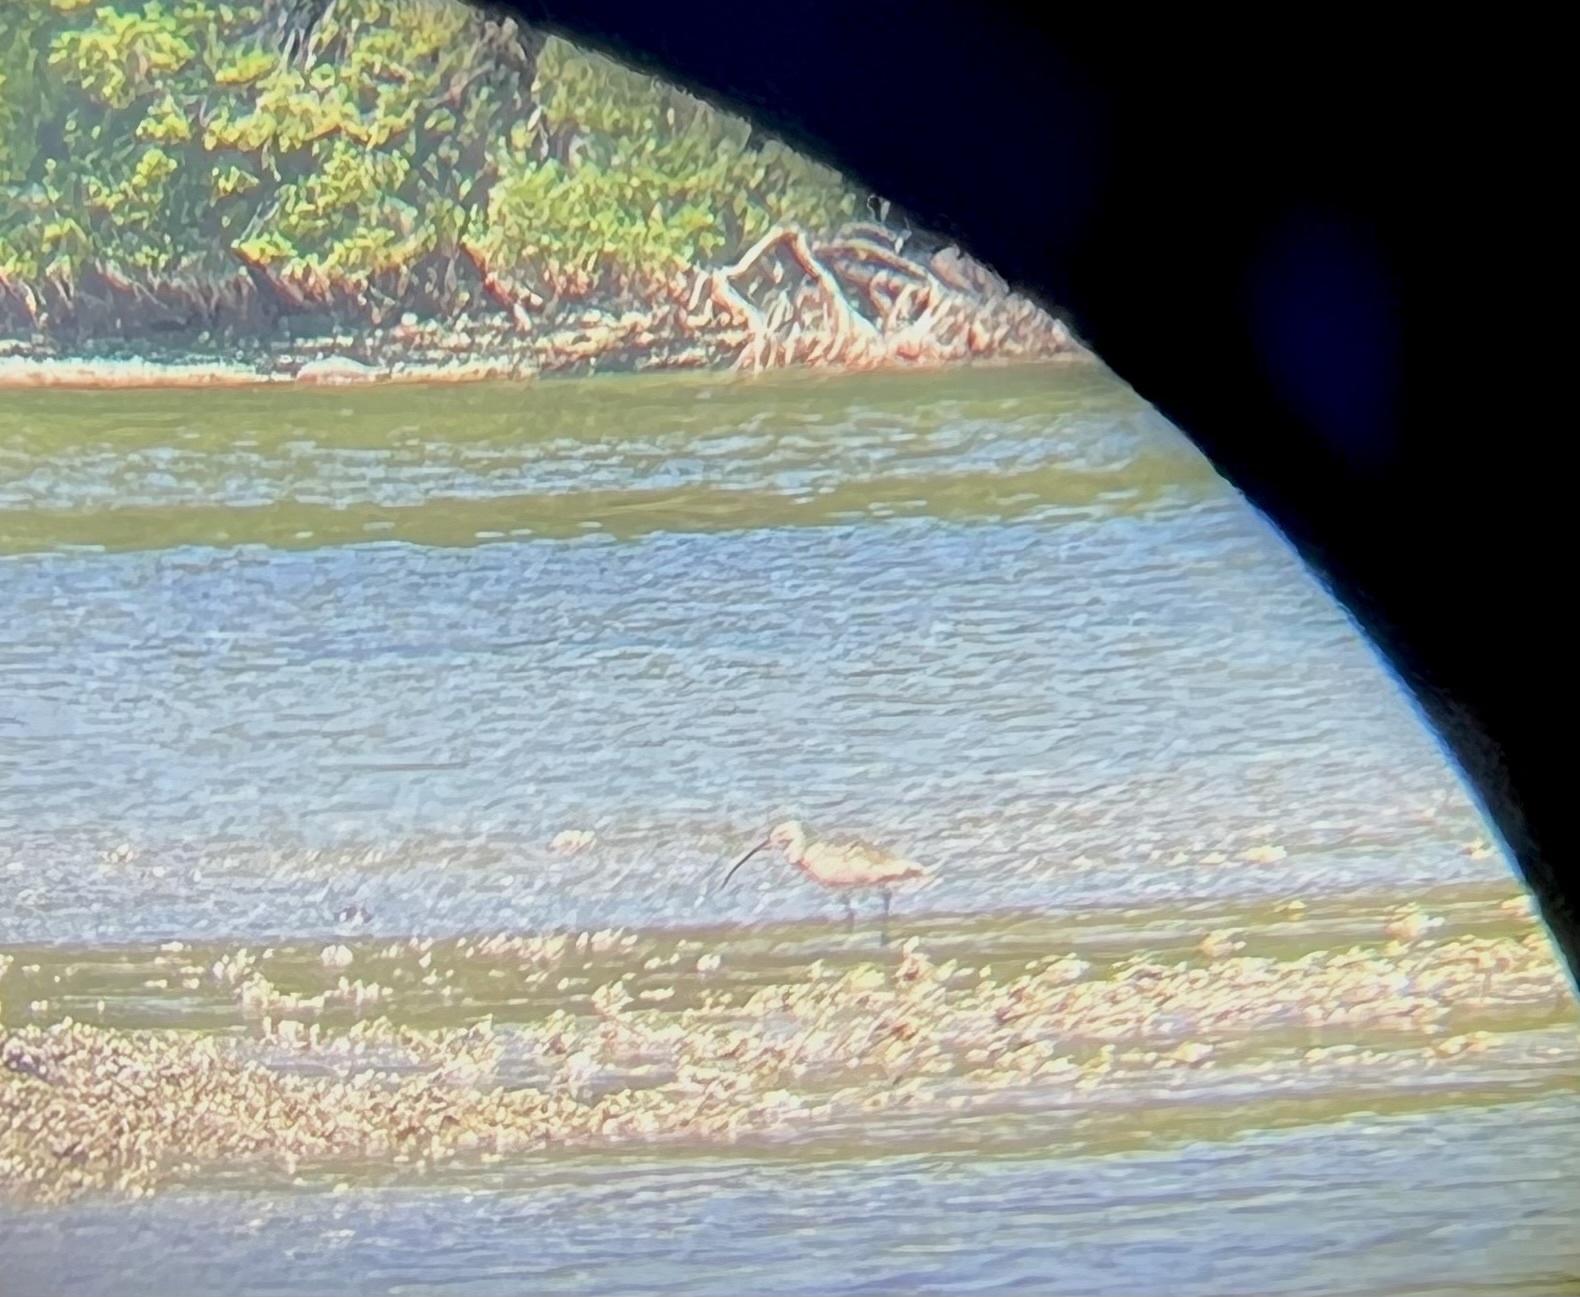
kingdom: Animalia
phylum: Chordata
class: Aves
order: Charadriiformes
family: Scolopacidae
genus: Numenius
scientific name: Numenius americanus
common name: Long-billed curlew
